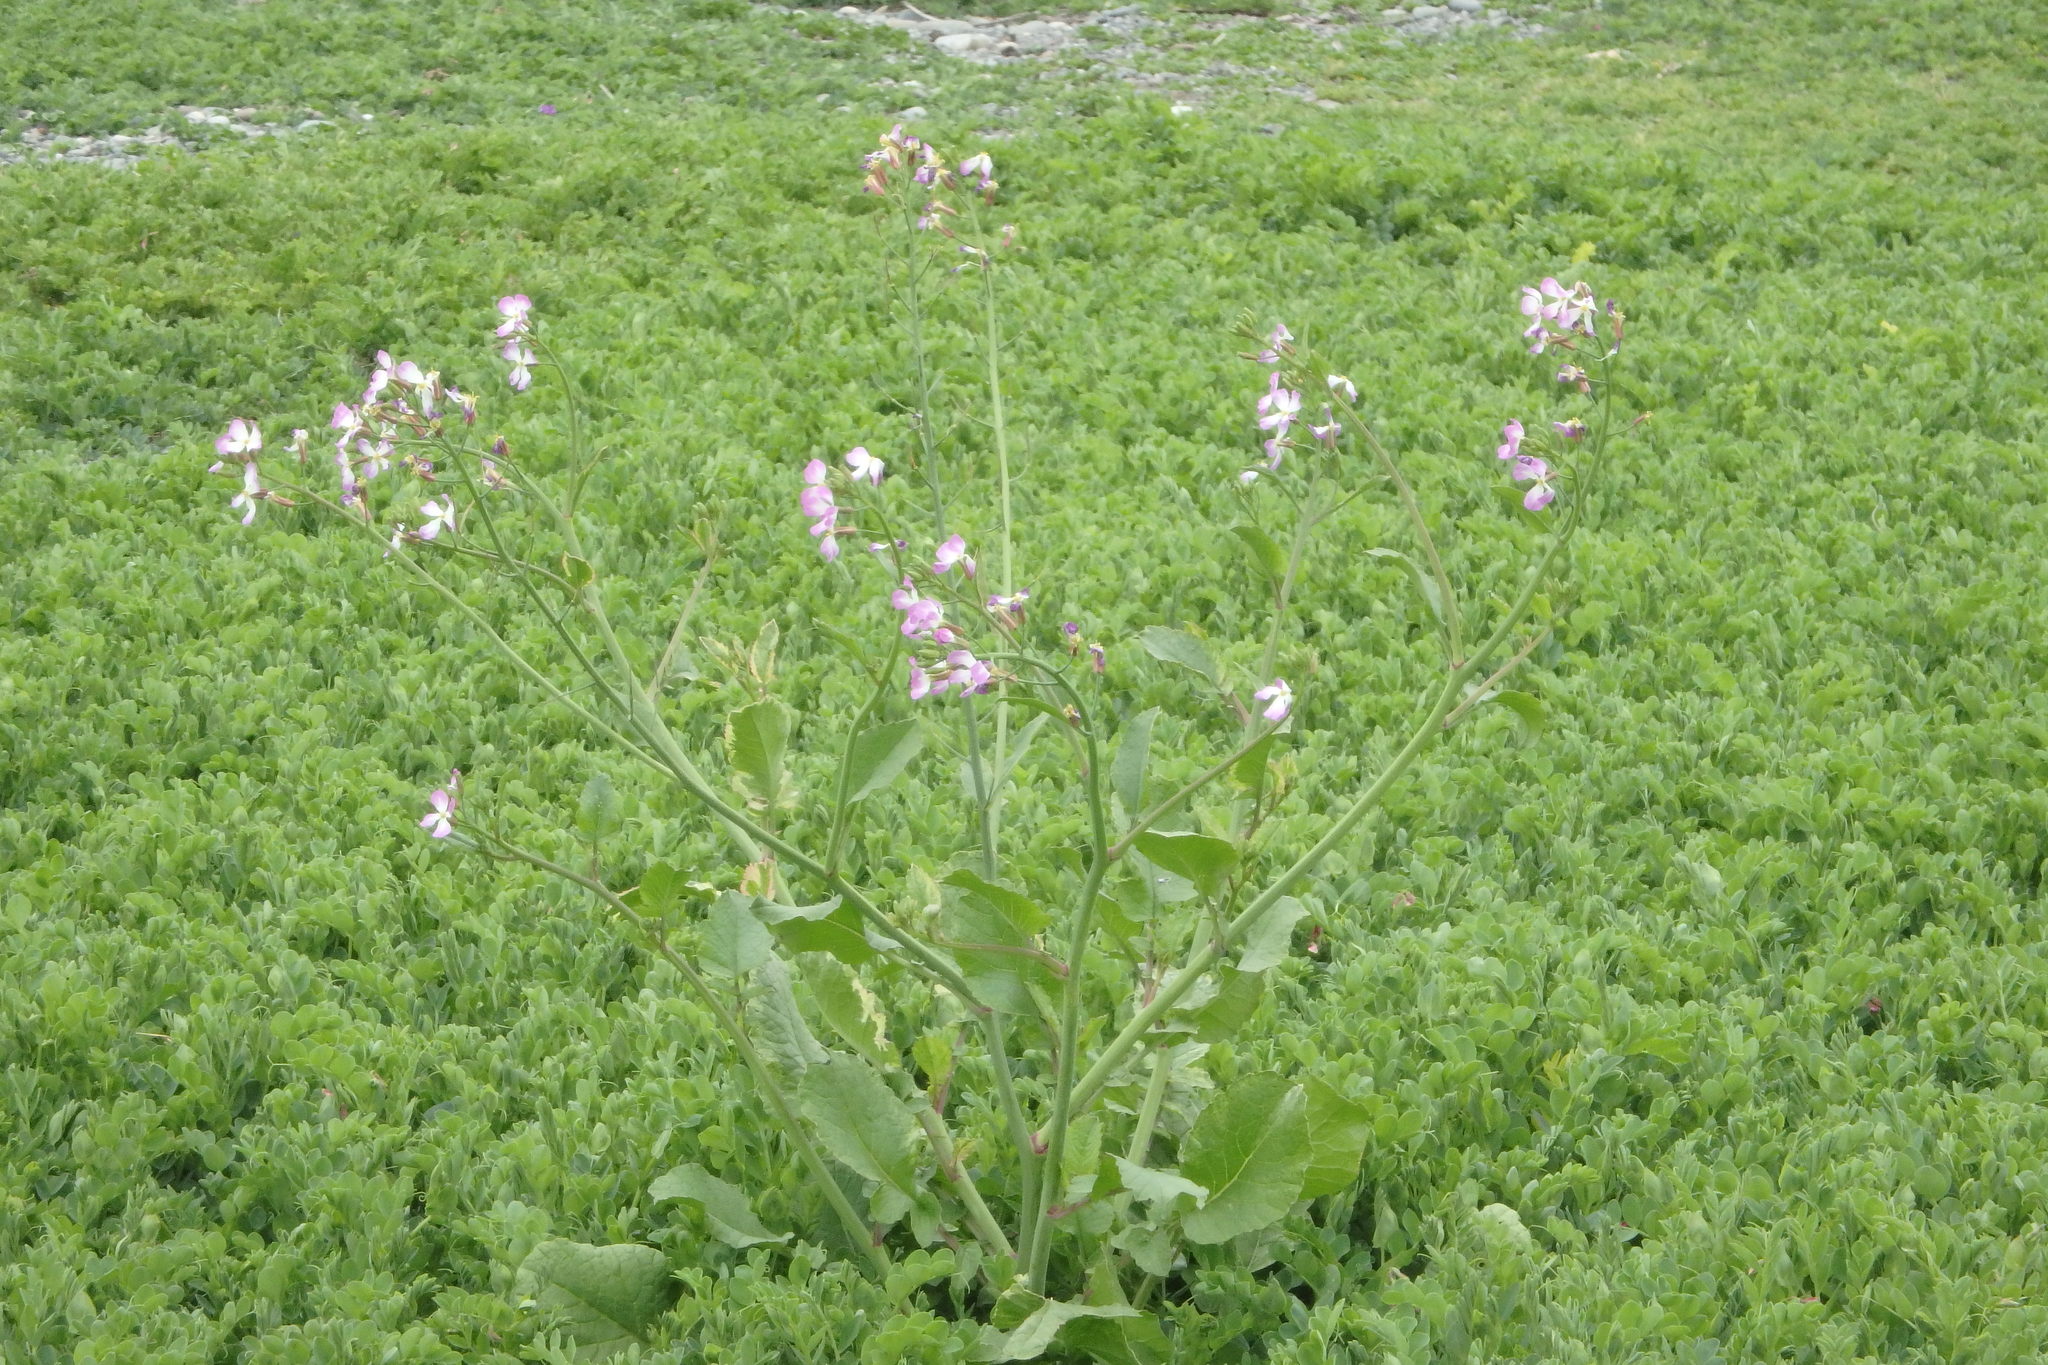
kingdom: Plantae
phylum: Tracheophyta
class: Magnoliopsida
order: Brassicales
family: Brassicaceae
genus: Raphanus
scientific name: Raphanus sativus
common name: Cultivated radish
